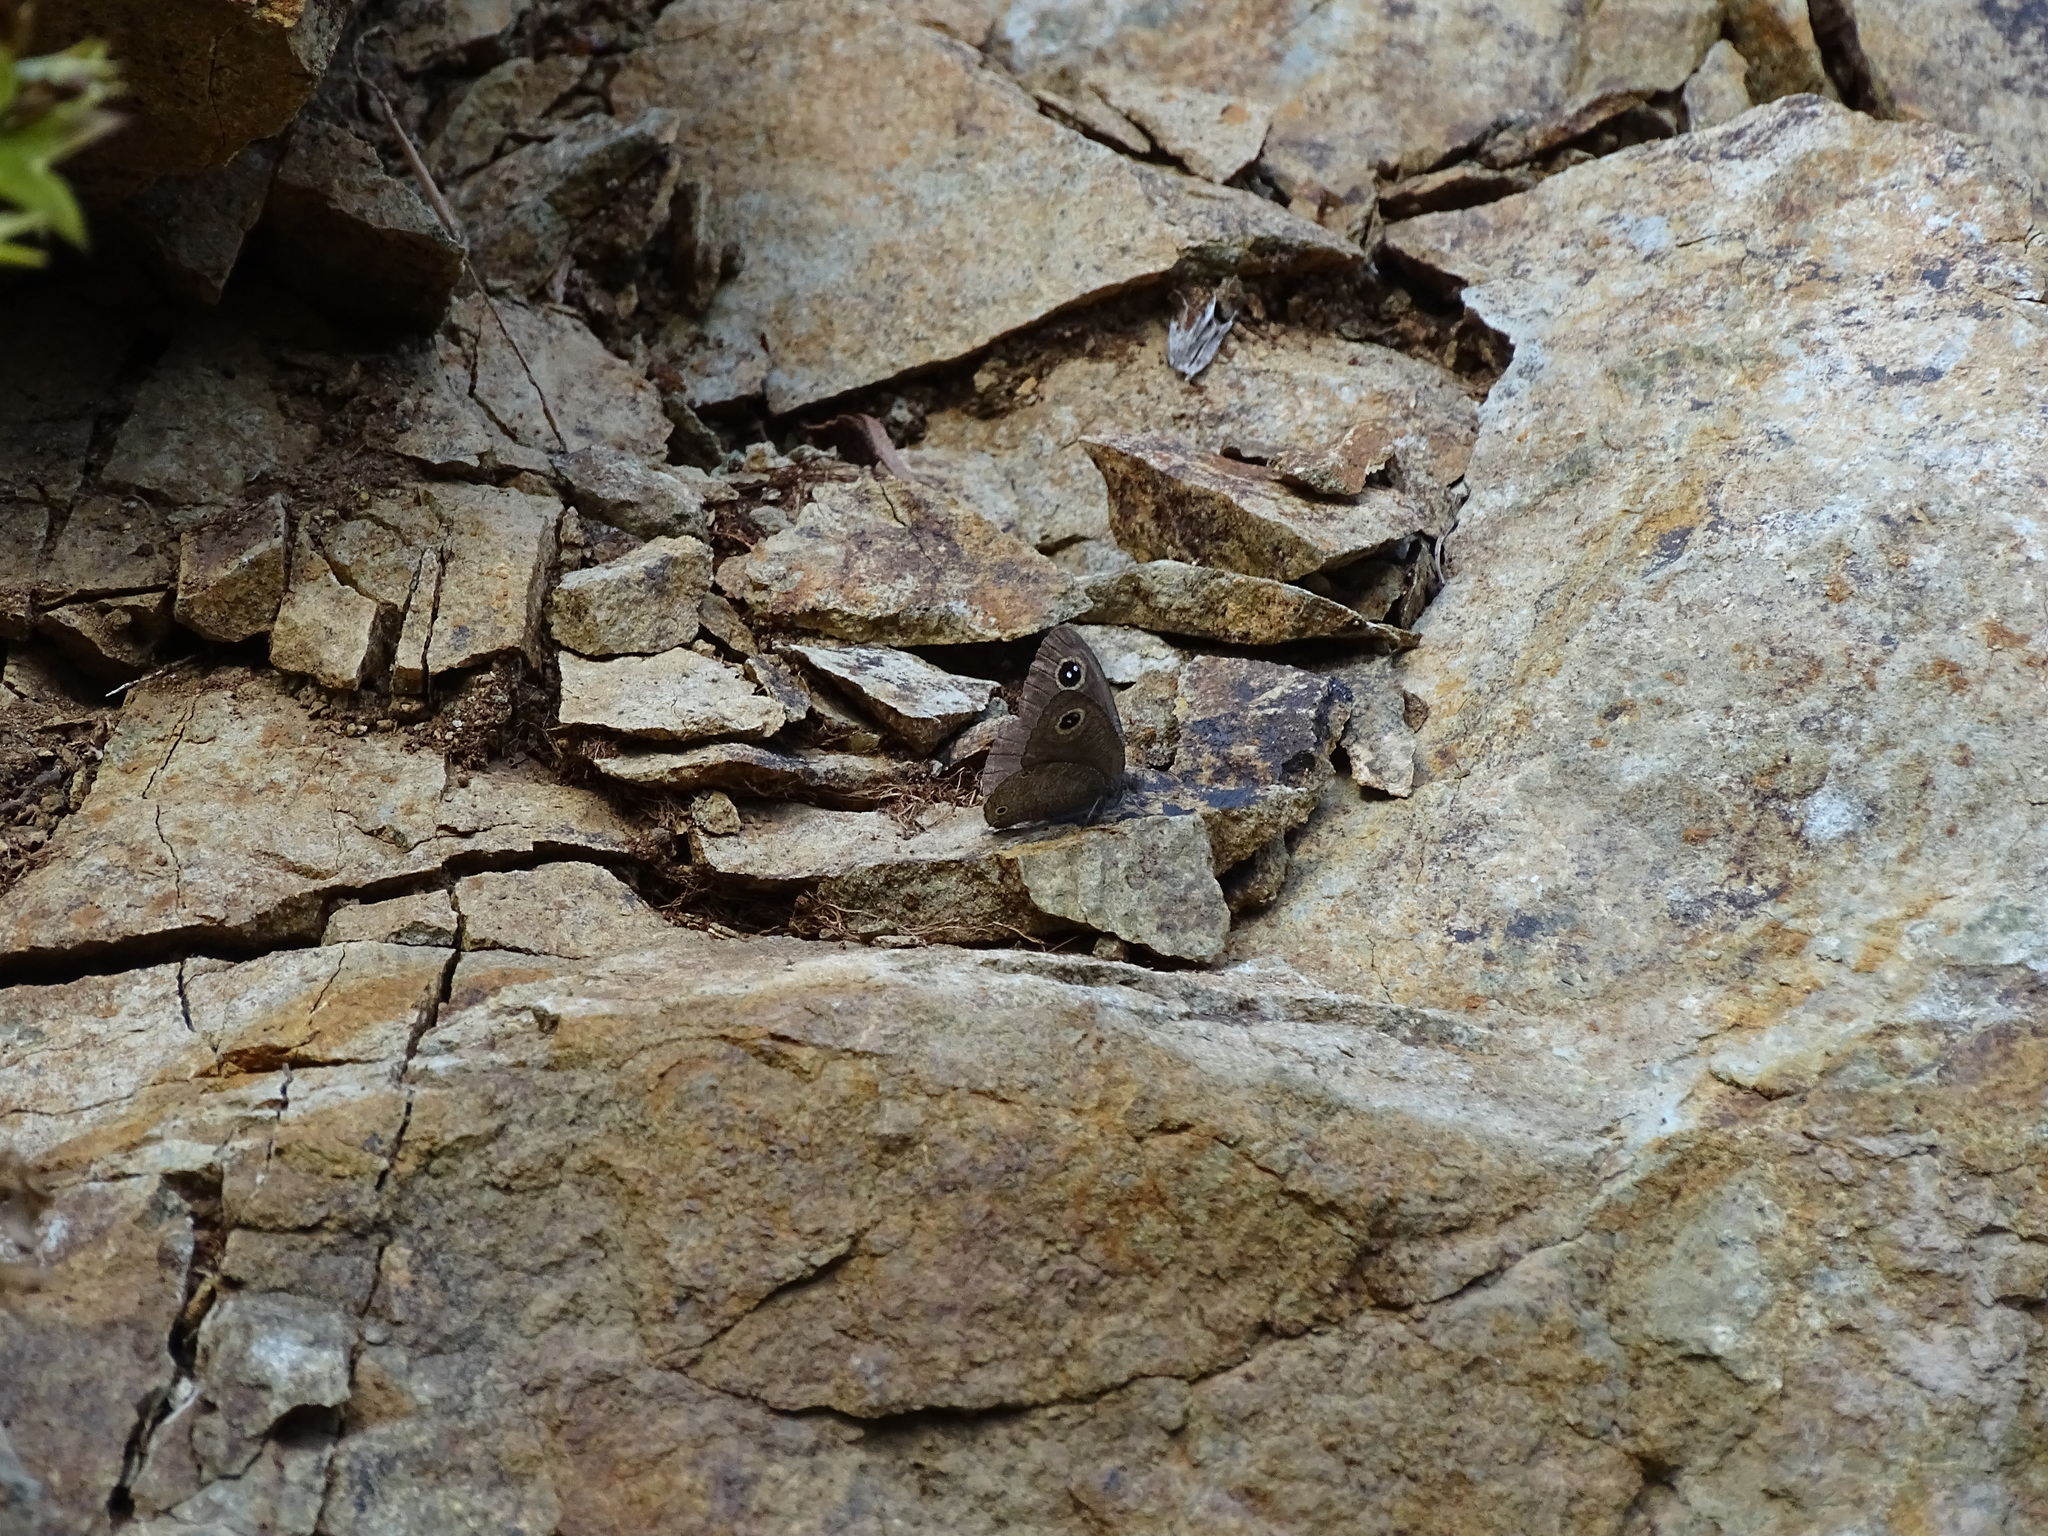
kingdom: Animalia
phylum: Arthropoda
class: Insecta
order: Lepidoptera
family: Nymphalidae
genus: Ypthima
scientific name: Ypthima asterope
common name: African ringlet
